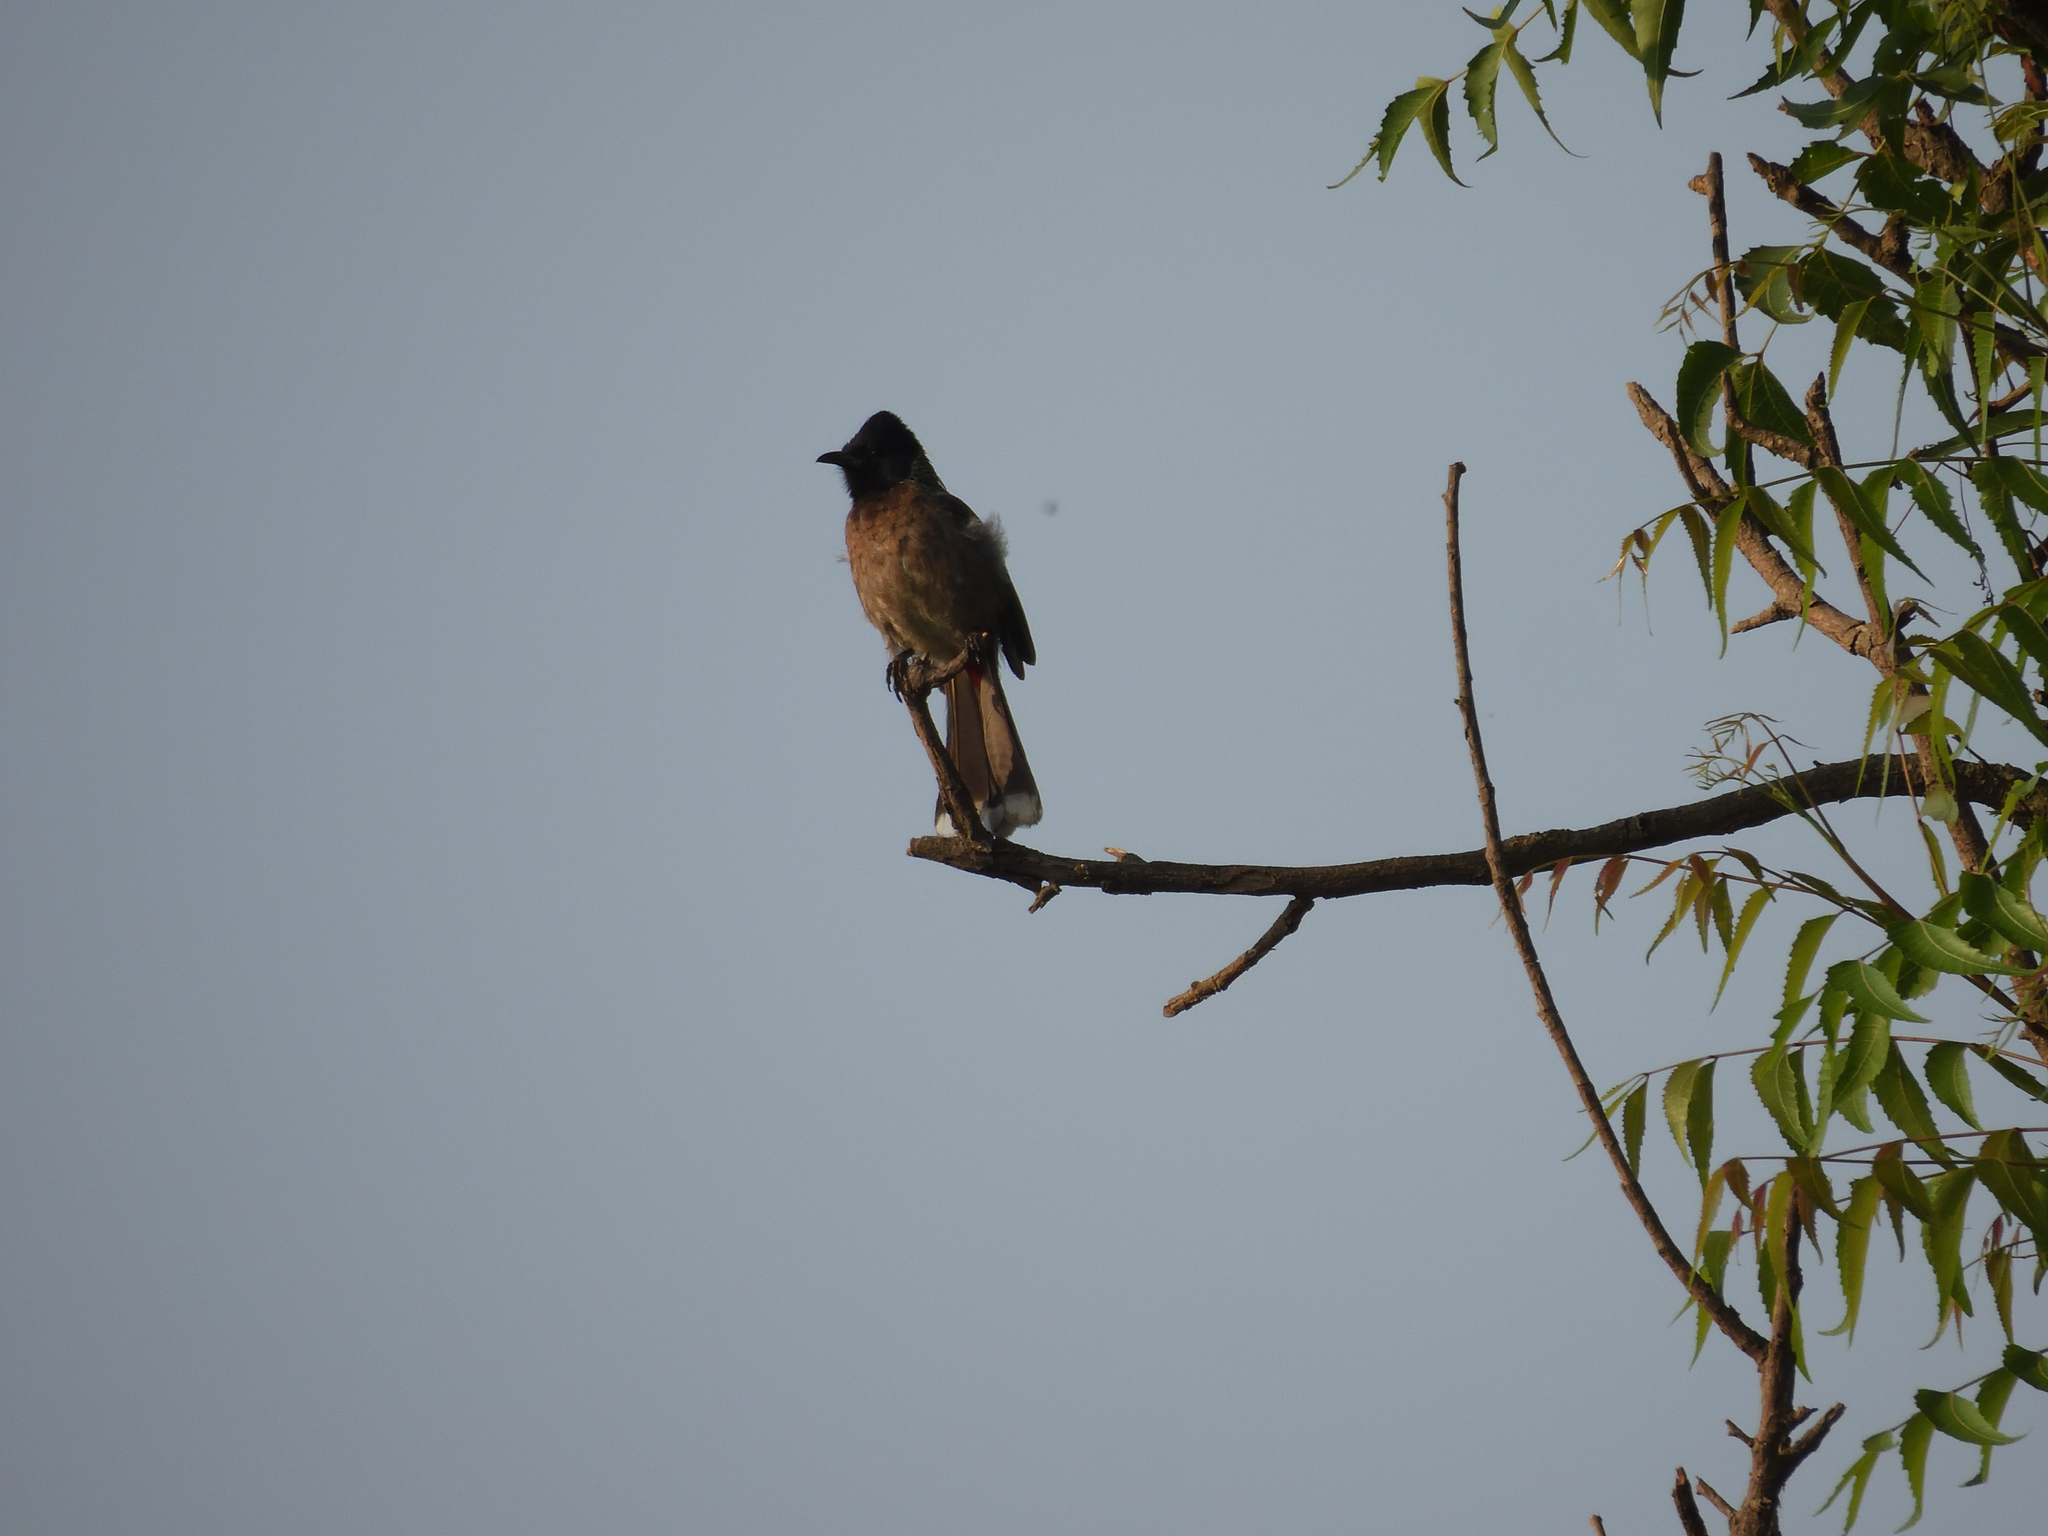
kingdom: Animalia
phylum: Chordata
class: Aves
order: Passeriformes
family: Pycnonotidae
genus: Pycnonotus
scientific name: Pycnonotus cafer
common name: Red-vented bulbul
